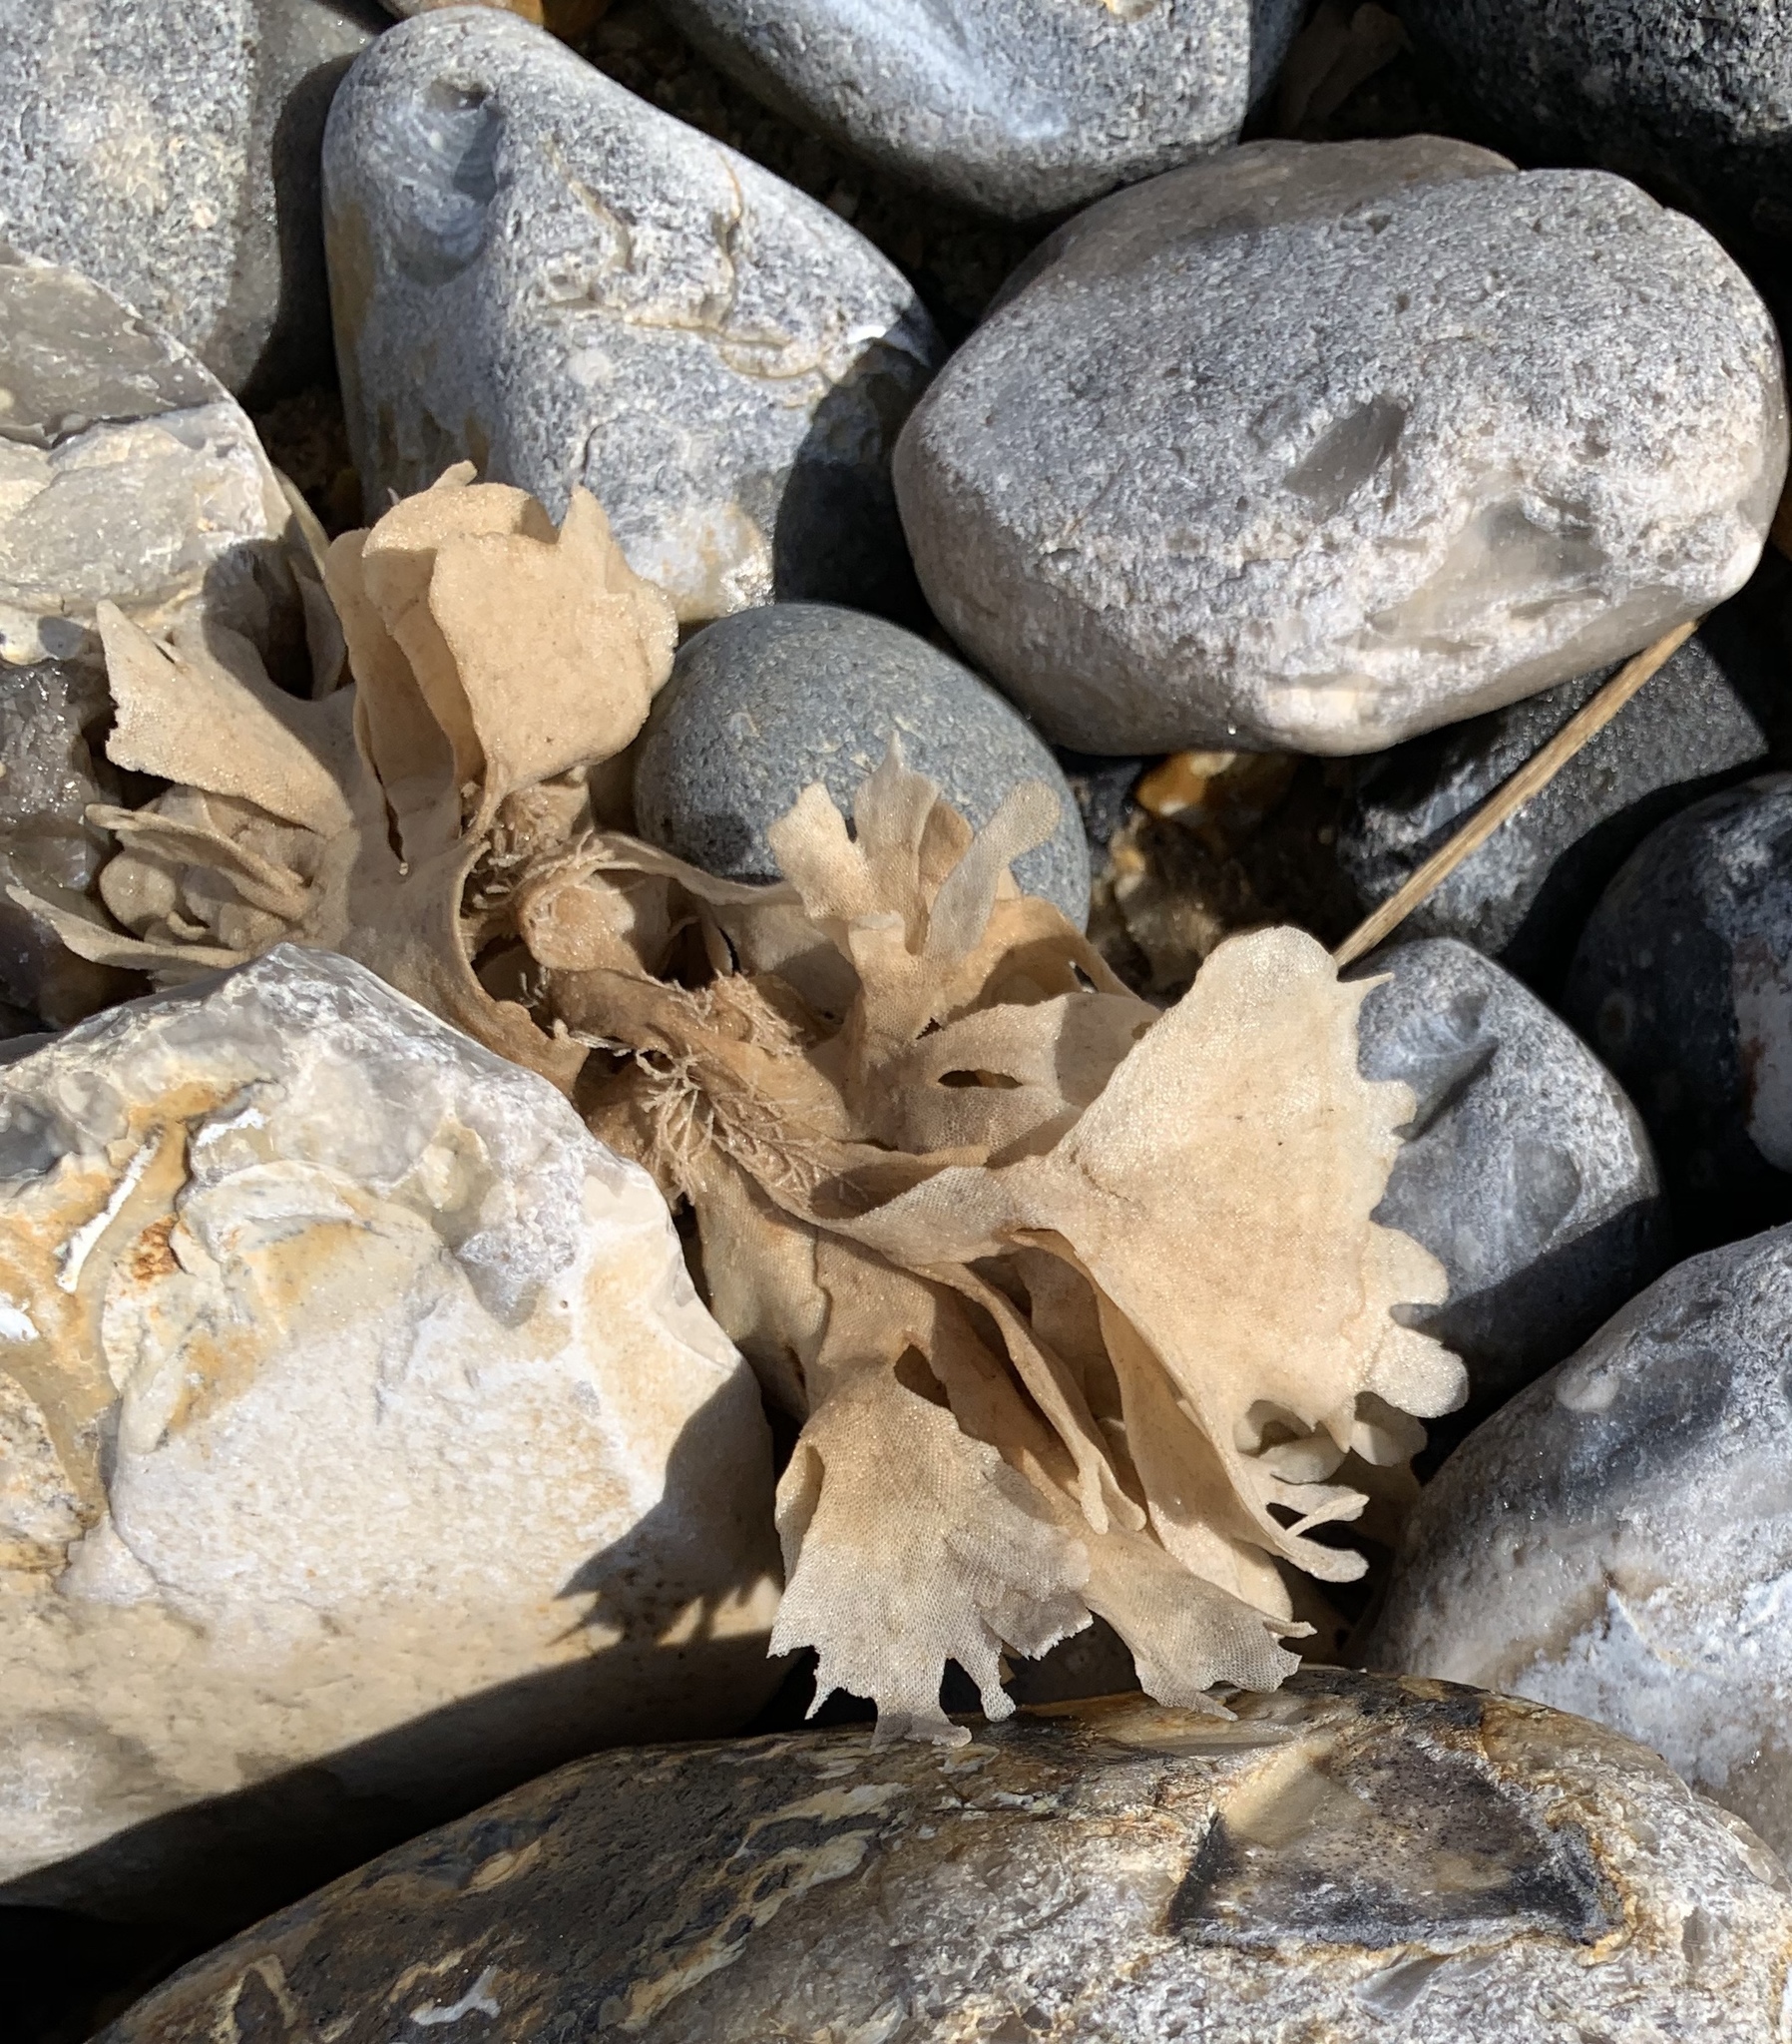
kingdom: Animalia
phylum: Bryozoa
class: Gymnolaemata
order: Cheilostomatida
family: Flustridae
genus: Flustra
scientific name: Flustra foliacea
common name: Hornwrack
